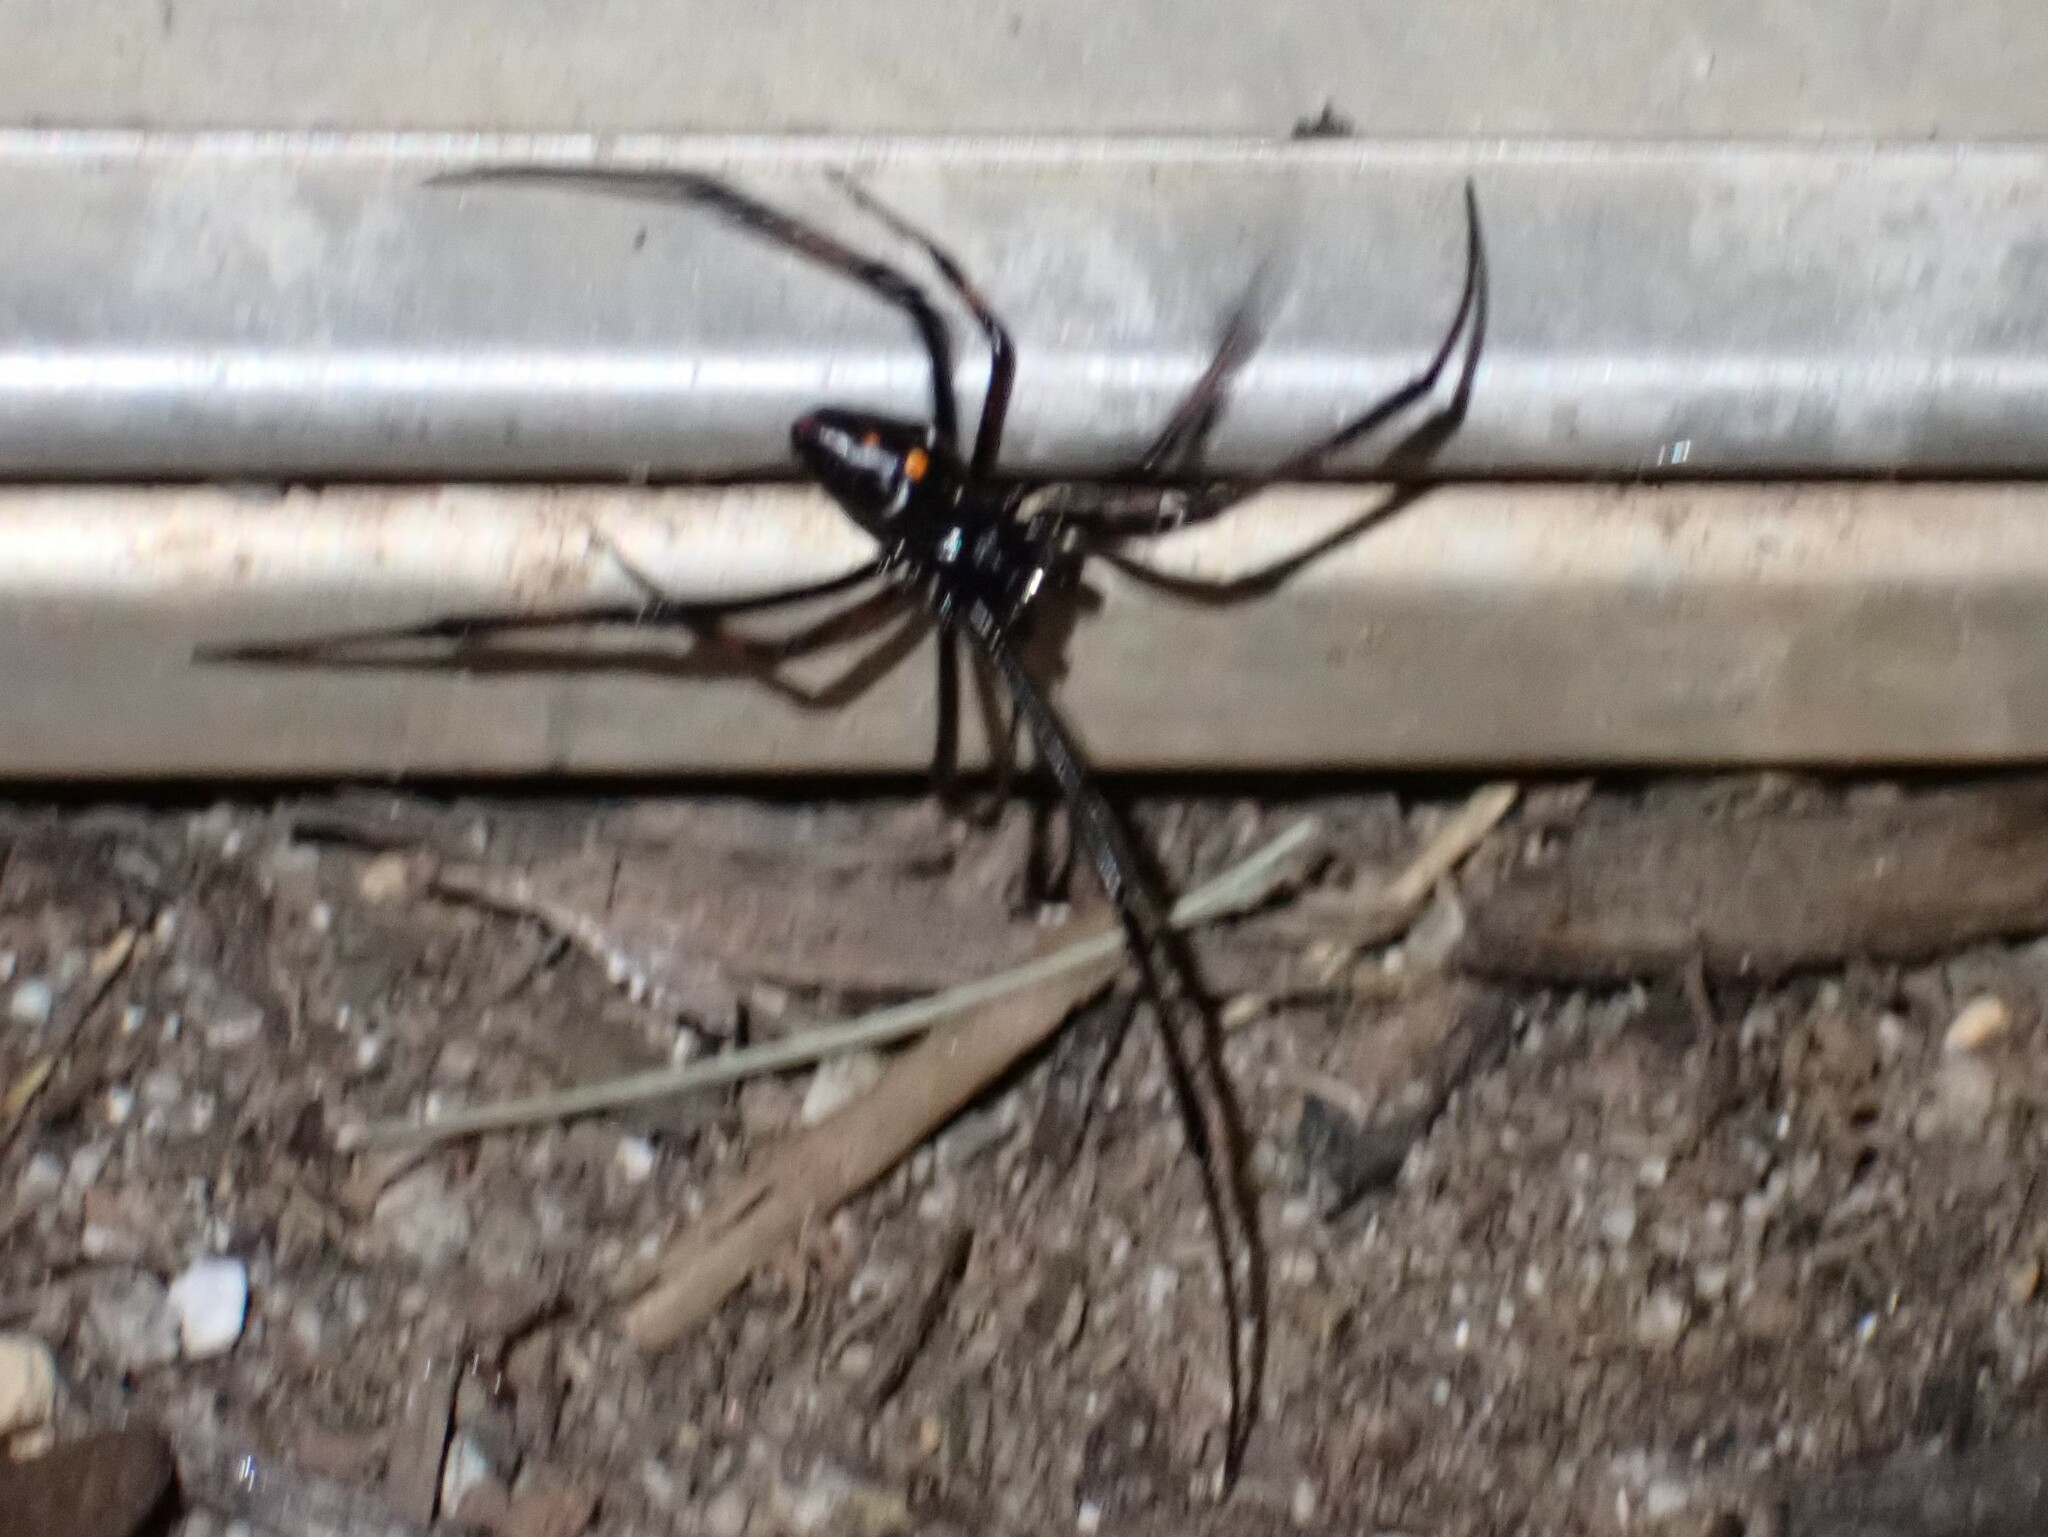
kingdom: Animalia
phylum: Arthropoda
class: Arachnida
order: Araneae
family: Theridiidae
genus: Latrodectus
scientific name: Latrodectus variolus
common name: Northern black widow
